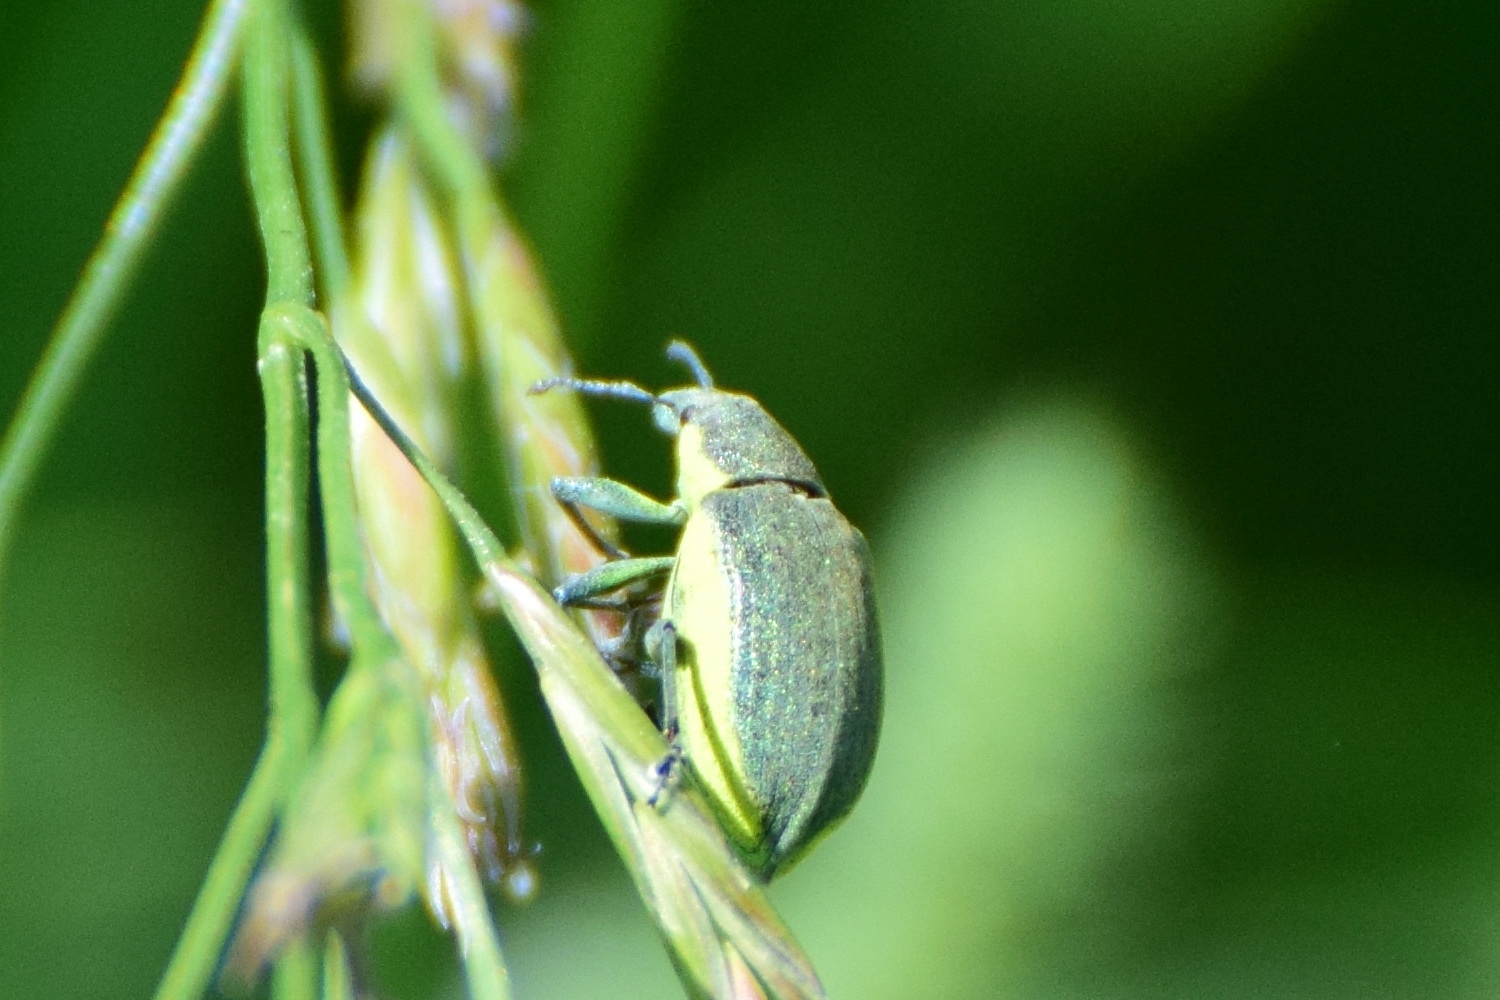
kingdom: Animalia
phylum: Arthropoda
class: Insecta
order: Coleoptera
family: Curculionidae
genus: Chlorophanus
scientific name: Chlorophanus viridis
